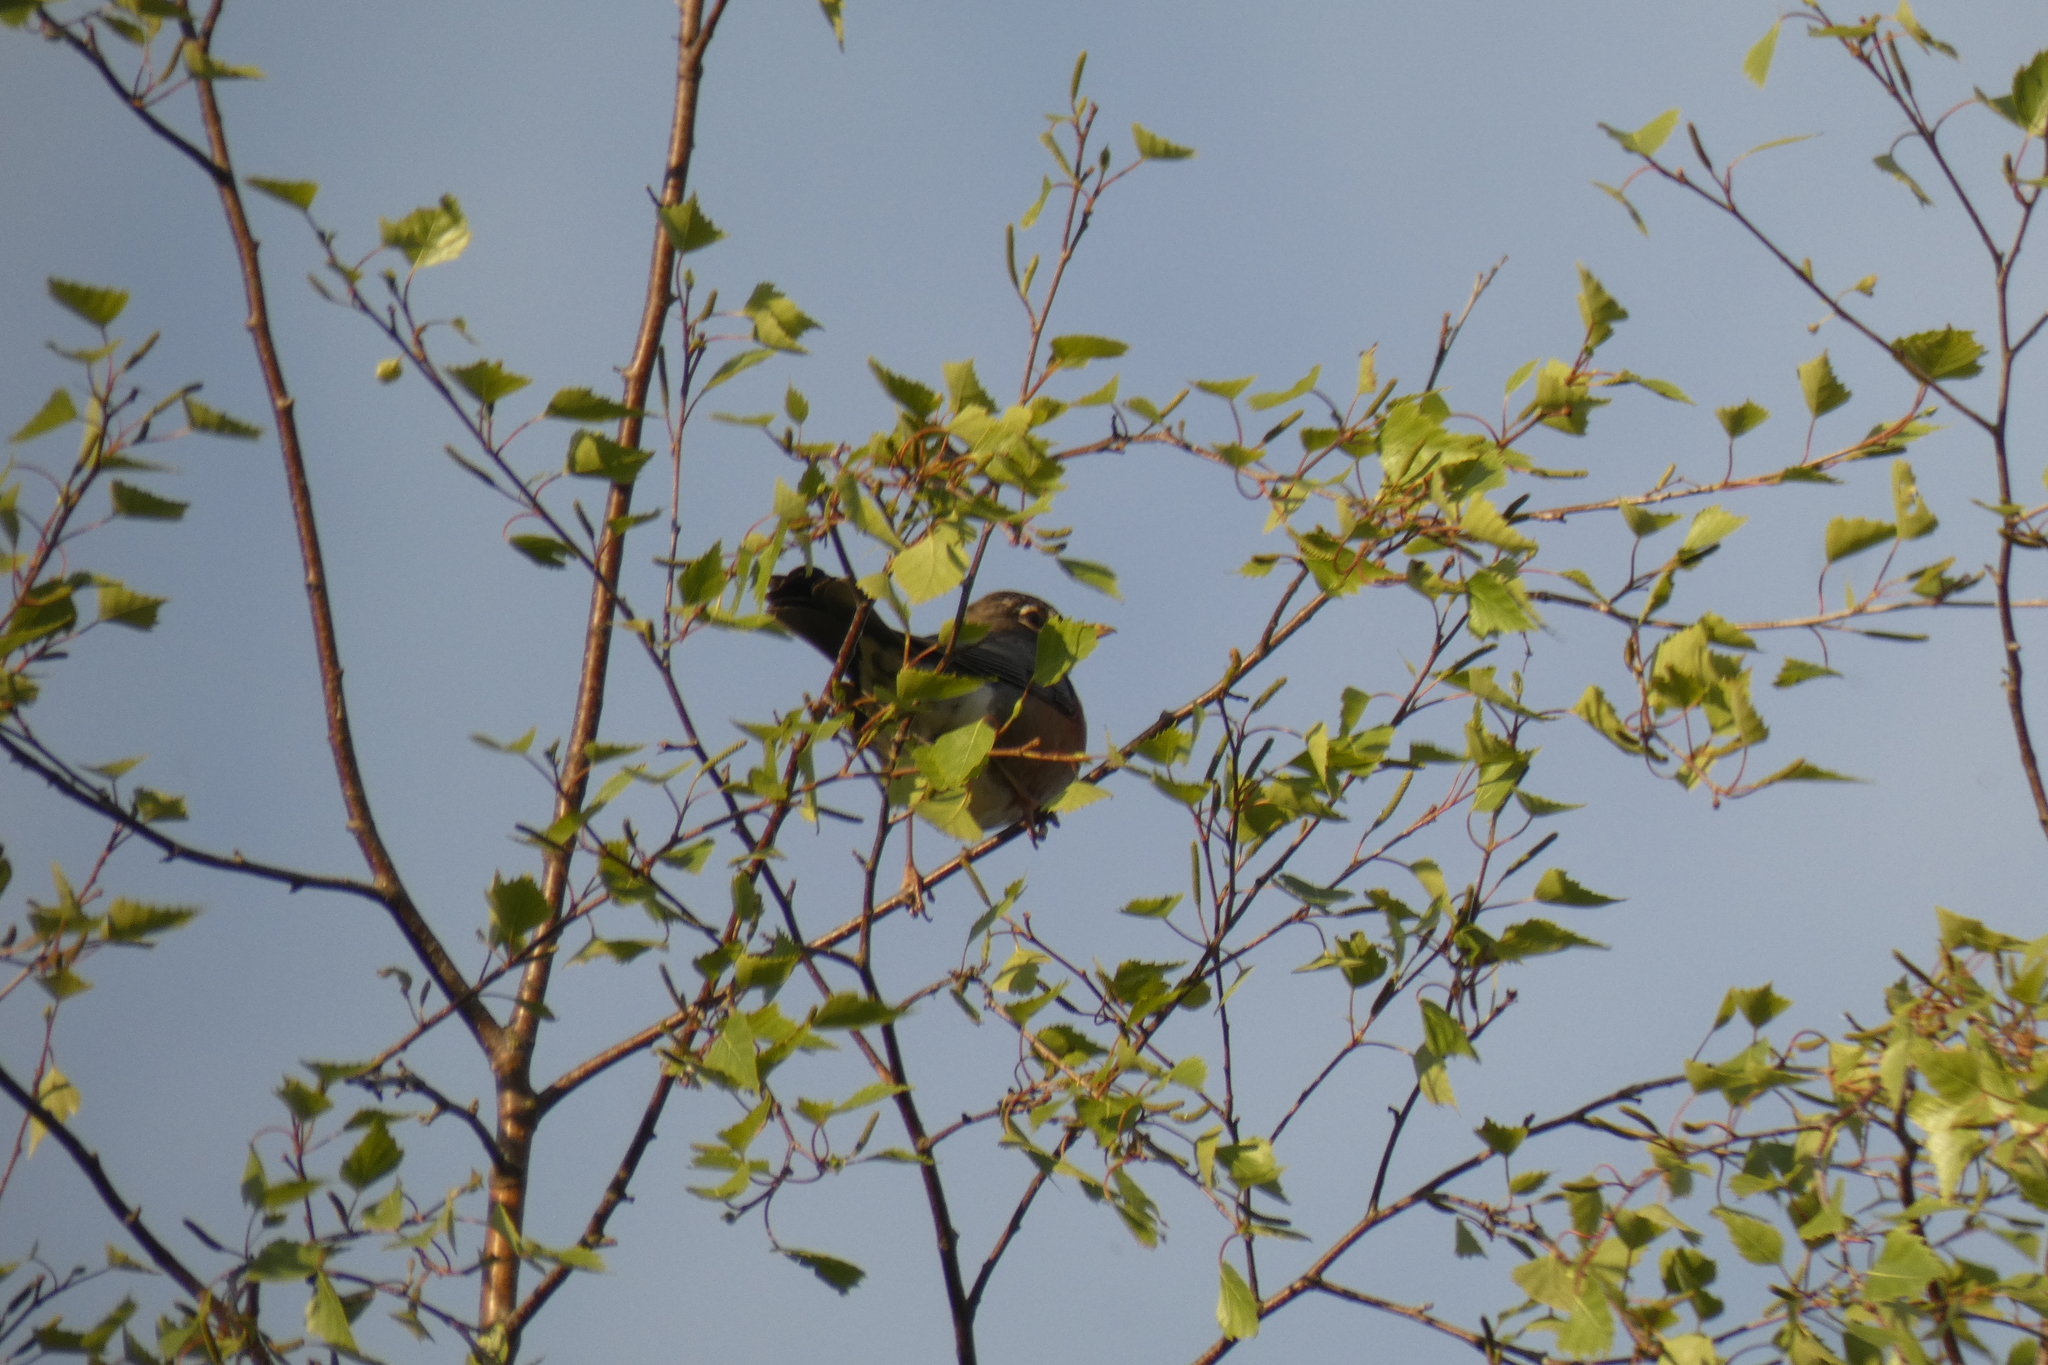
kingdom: Animalia
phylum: Chordata
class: Aves
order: Passeriformes
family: Turdidae
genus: Turdus
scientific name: Turdus migratorius
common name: American robin
